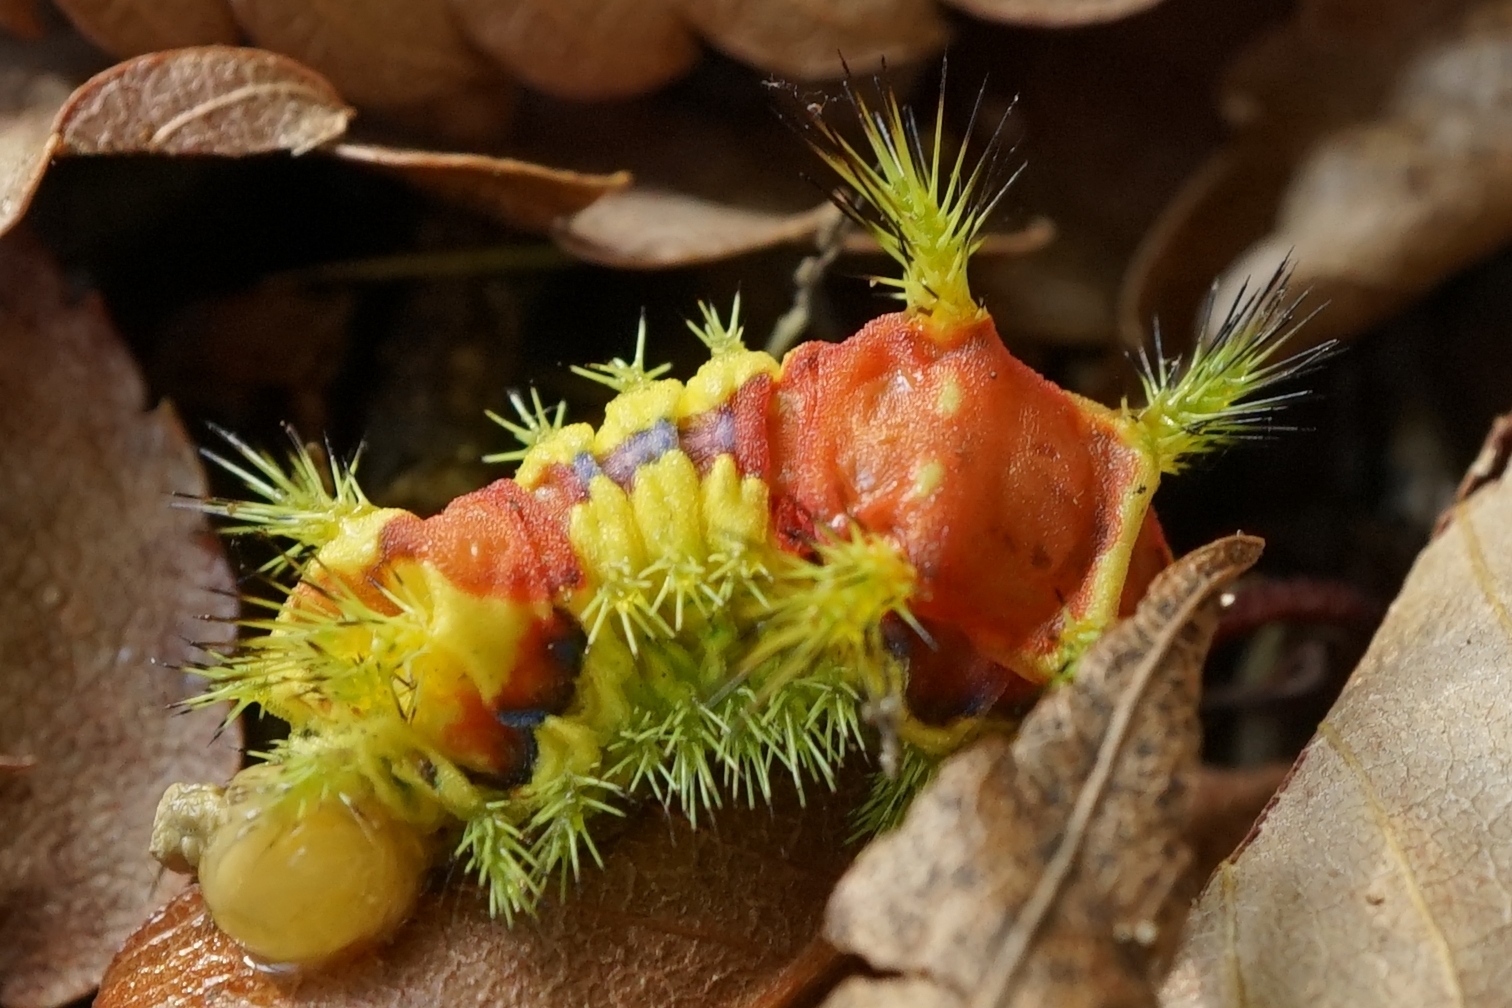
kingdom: Animalia
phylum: Arthropoda
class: Insecta
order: Lepidoptera
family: Limacodidae
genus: Monema
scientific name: Monema flavescens
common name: Oriental moth
